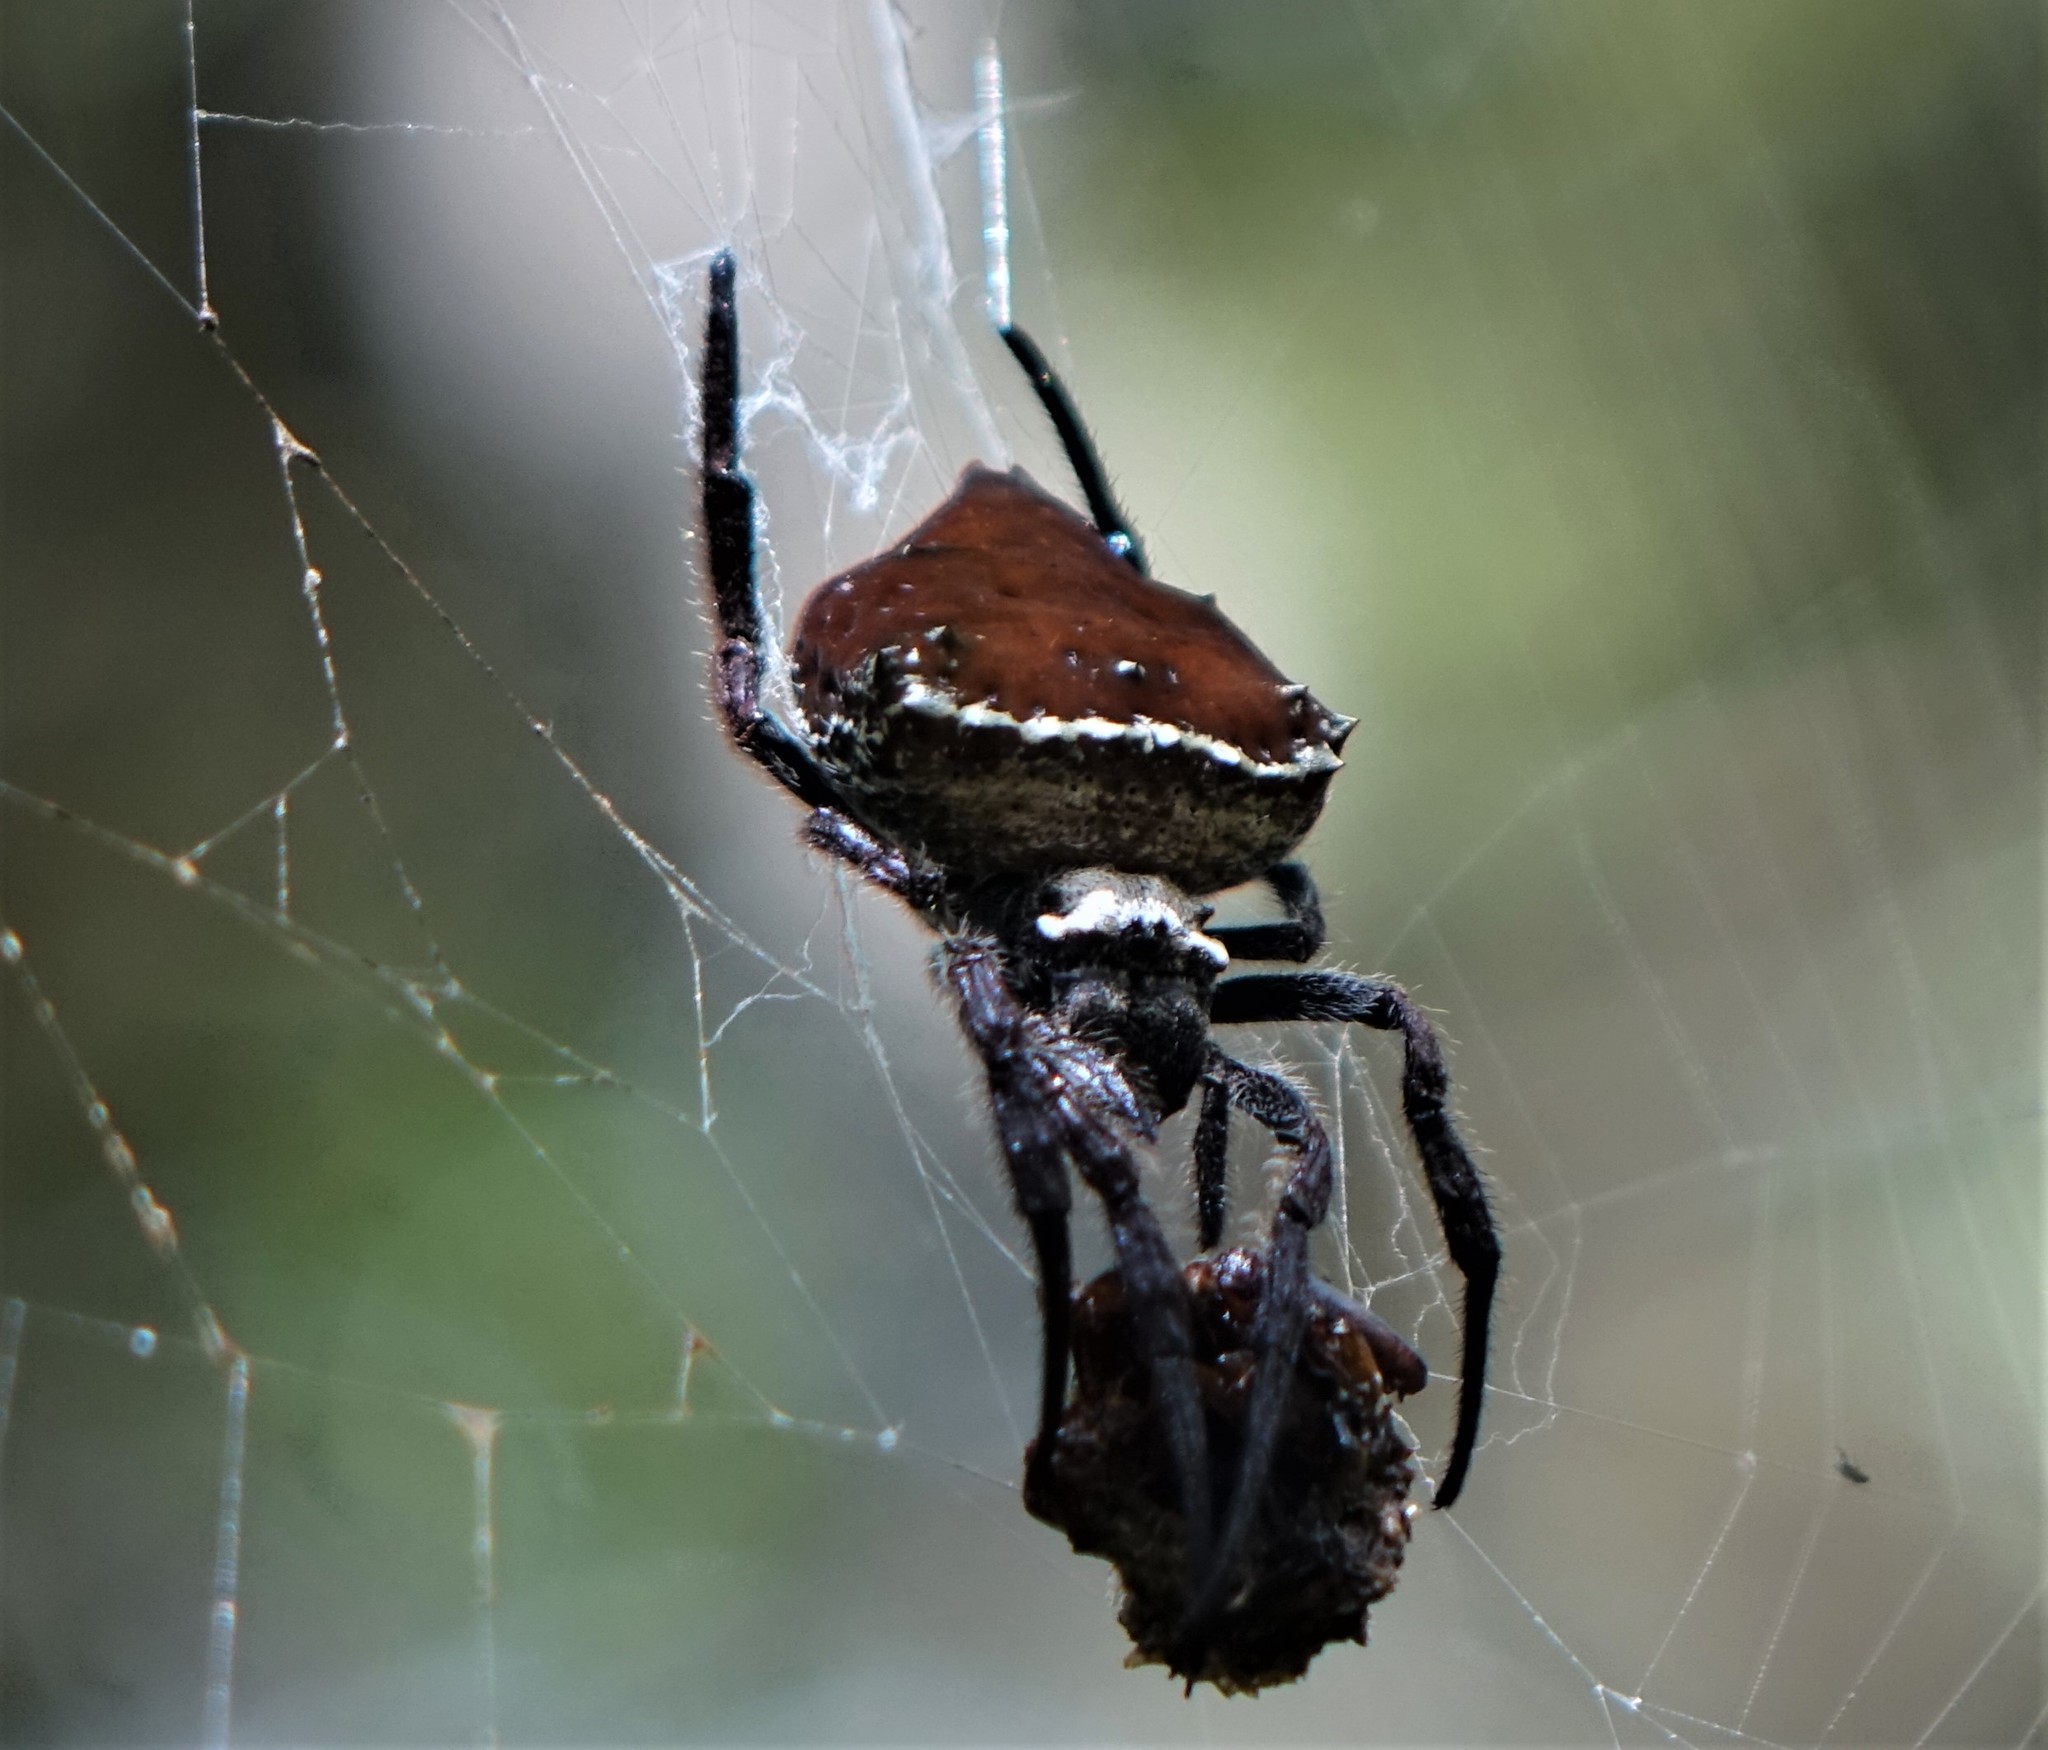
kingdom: Animalia
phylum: Arthropoda
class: Arachnida
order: Araneae
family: Araneidae
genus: Caerostris
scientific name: Caerostris extrusa
